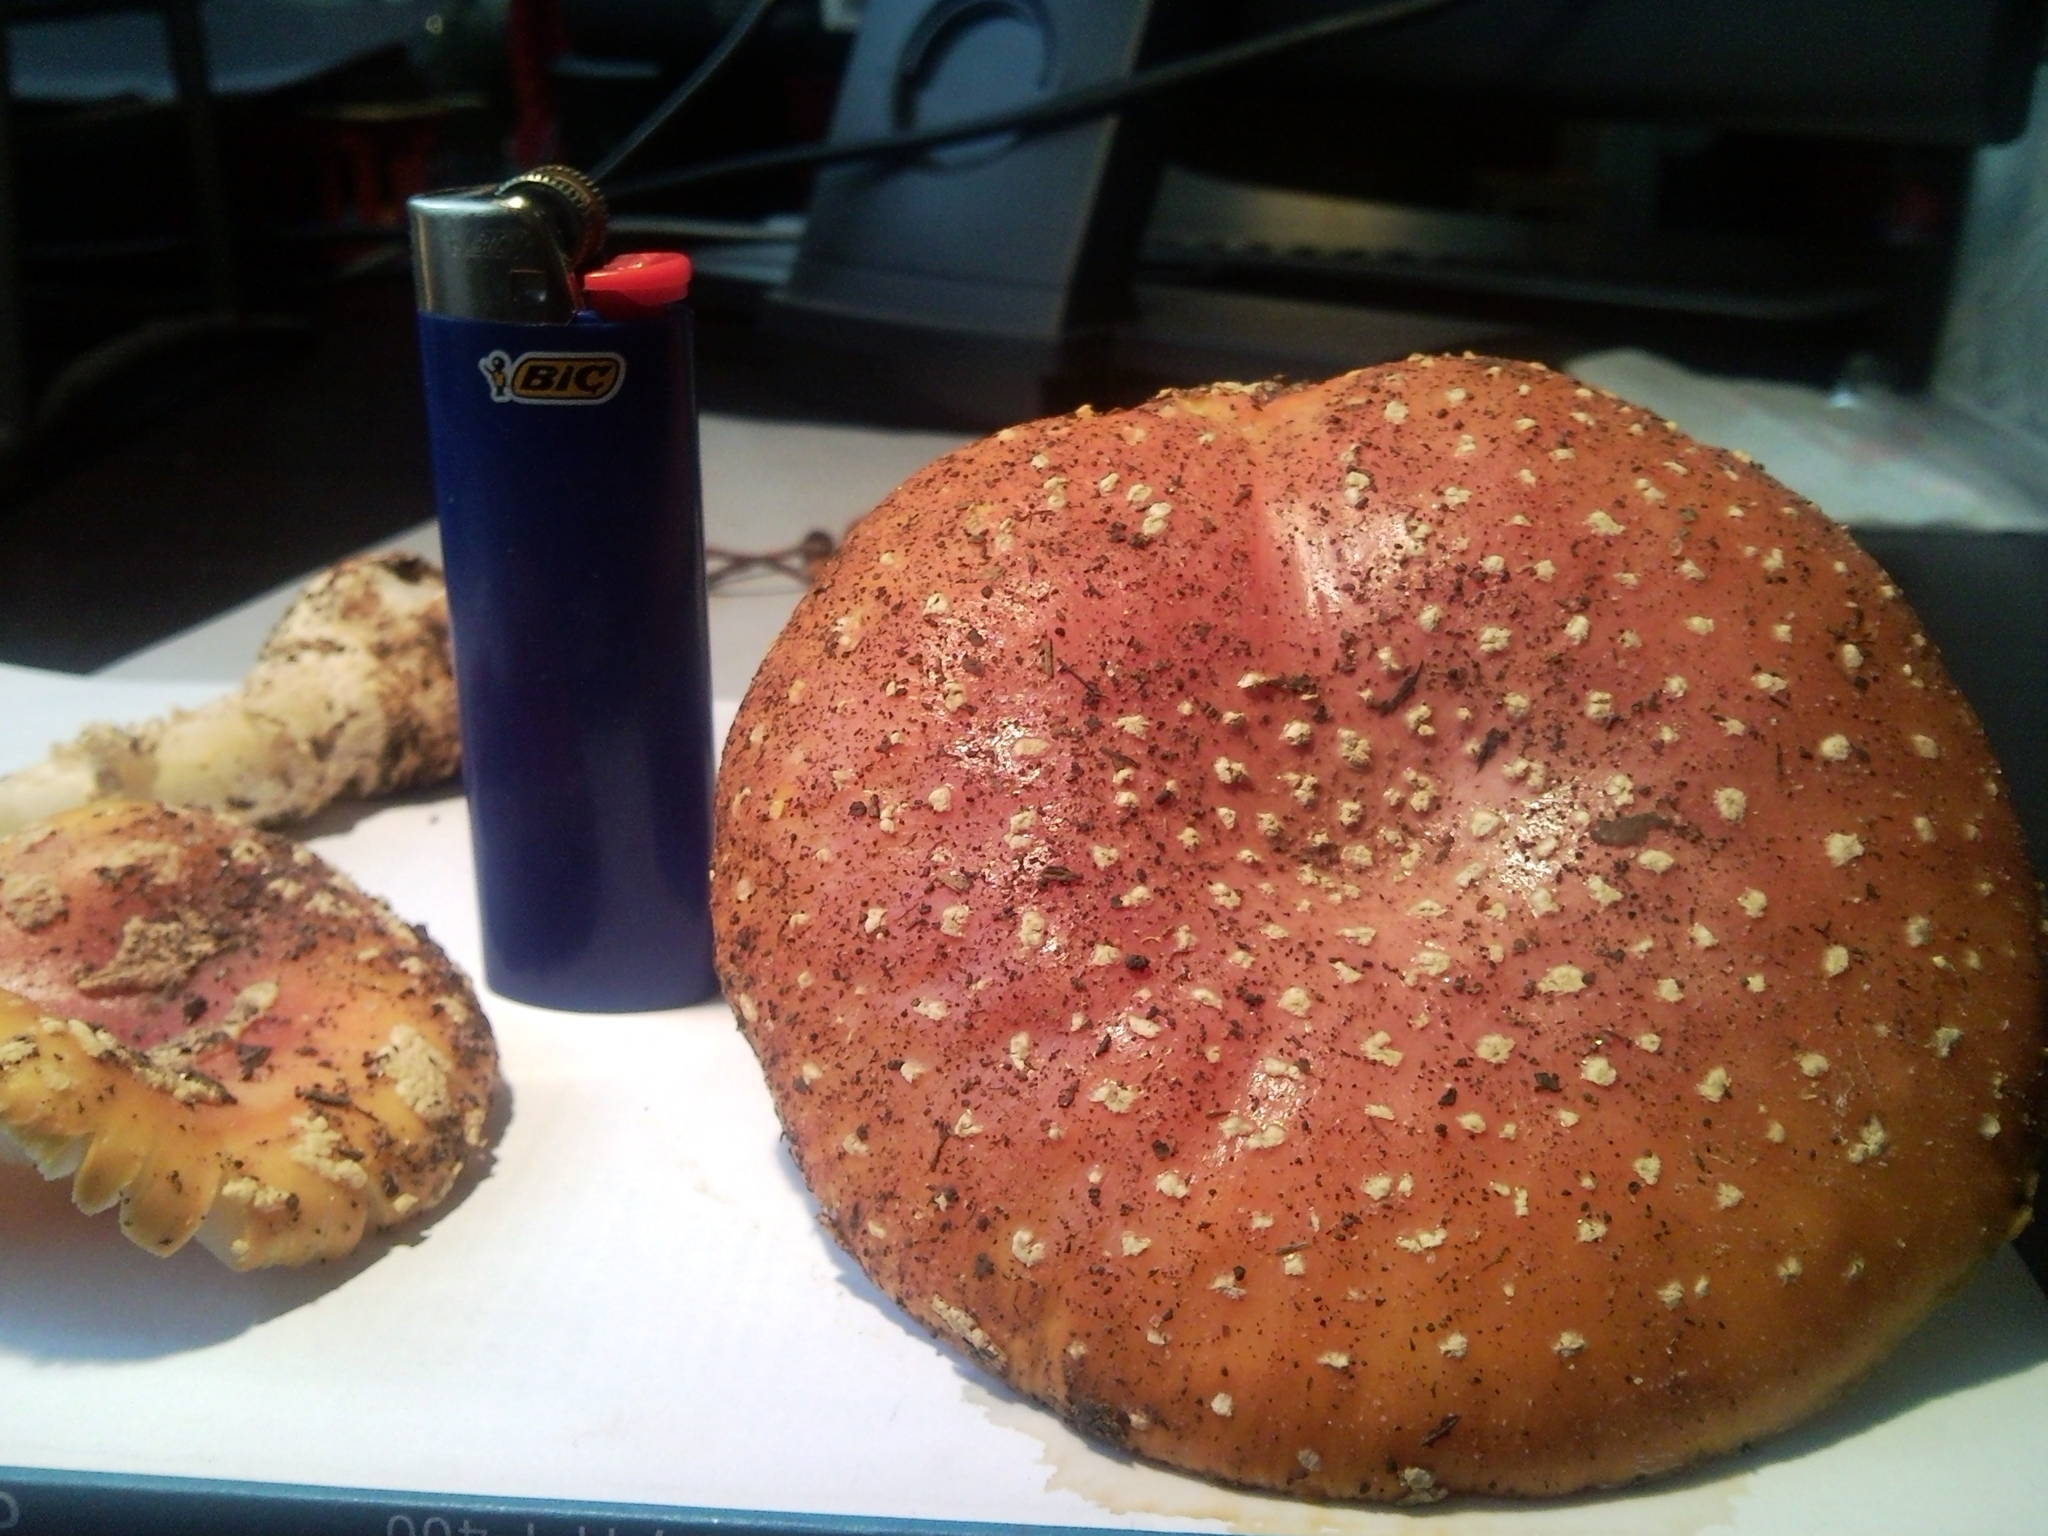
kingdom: Fungi
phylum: Basidiomycota
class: Agaricomycetes
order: Agaricales
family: Amanitaceae
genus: Amanita
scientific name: Amanita persicina
